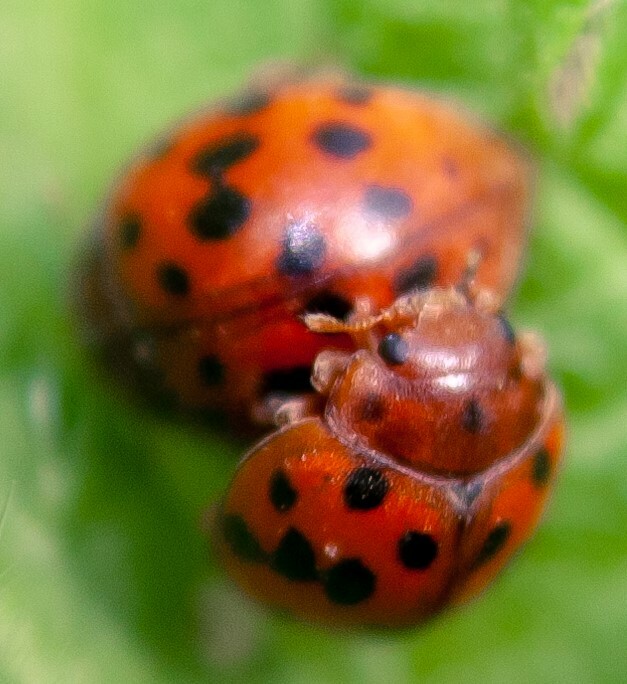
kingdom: Animalia
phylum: Arthropoda
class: Insecta
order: Coleoptera
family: Coccinellidae
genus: Subcoccinella
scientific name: Subcoccinella vigintiquatuorpunctata
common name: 24-spot ladybird
